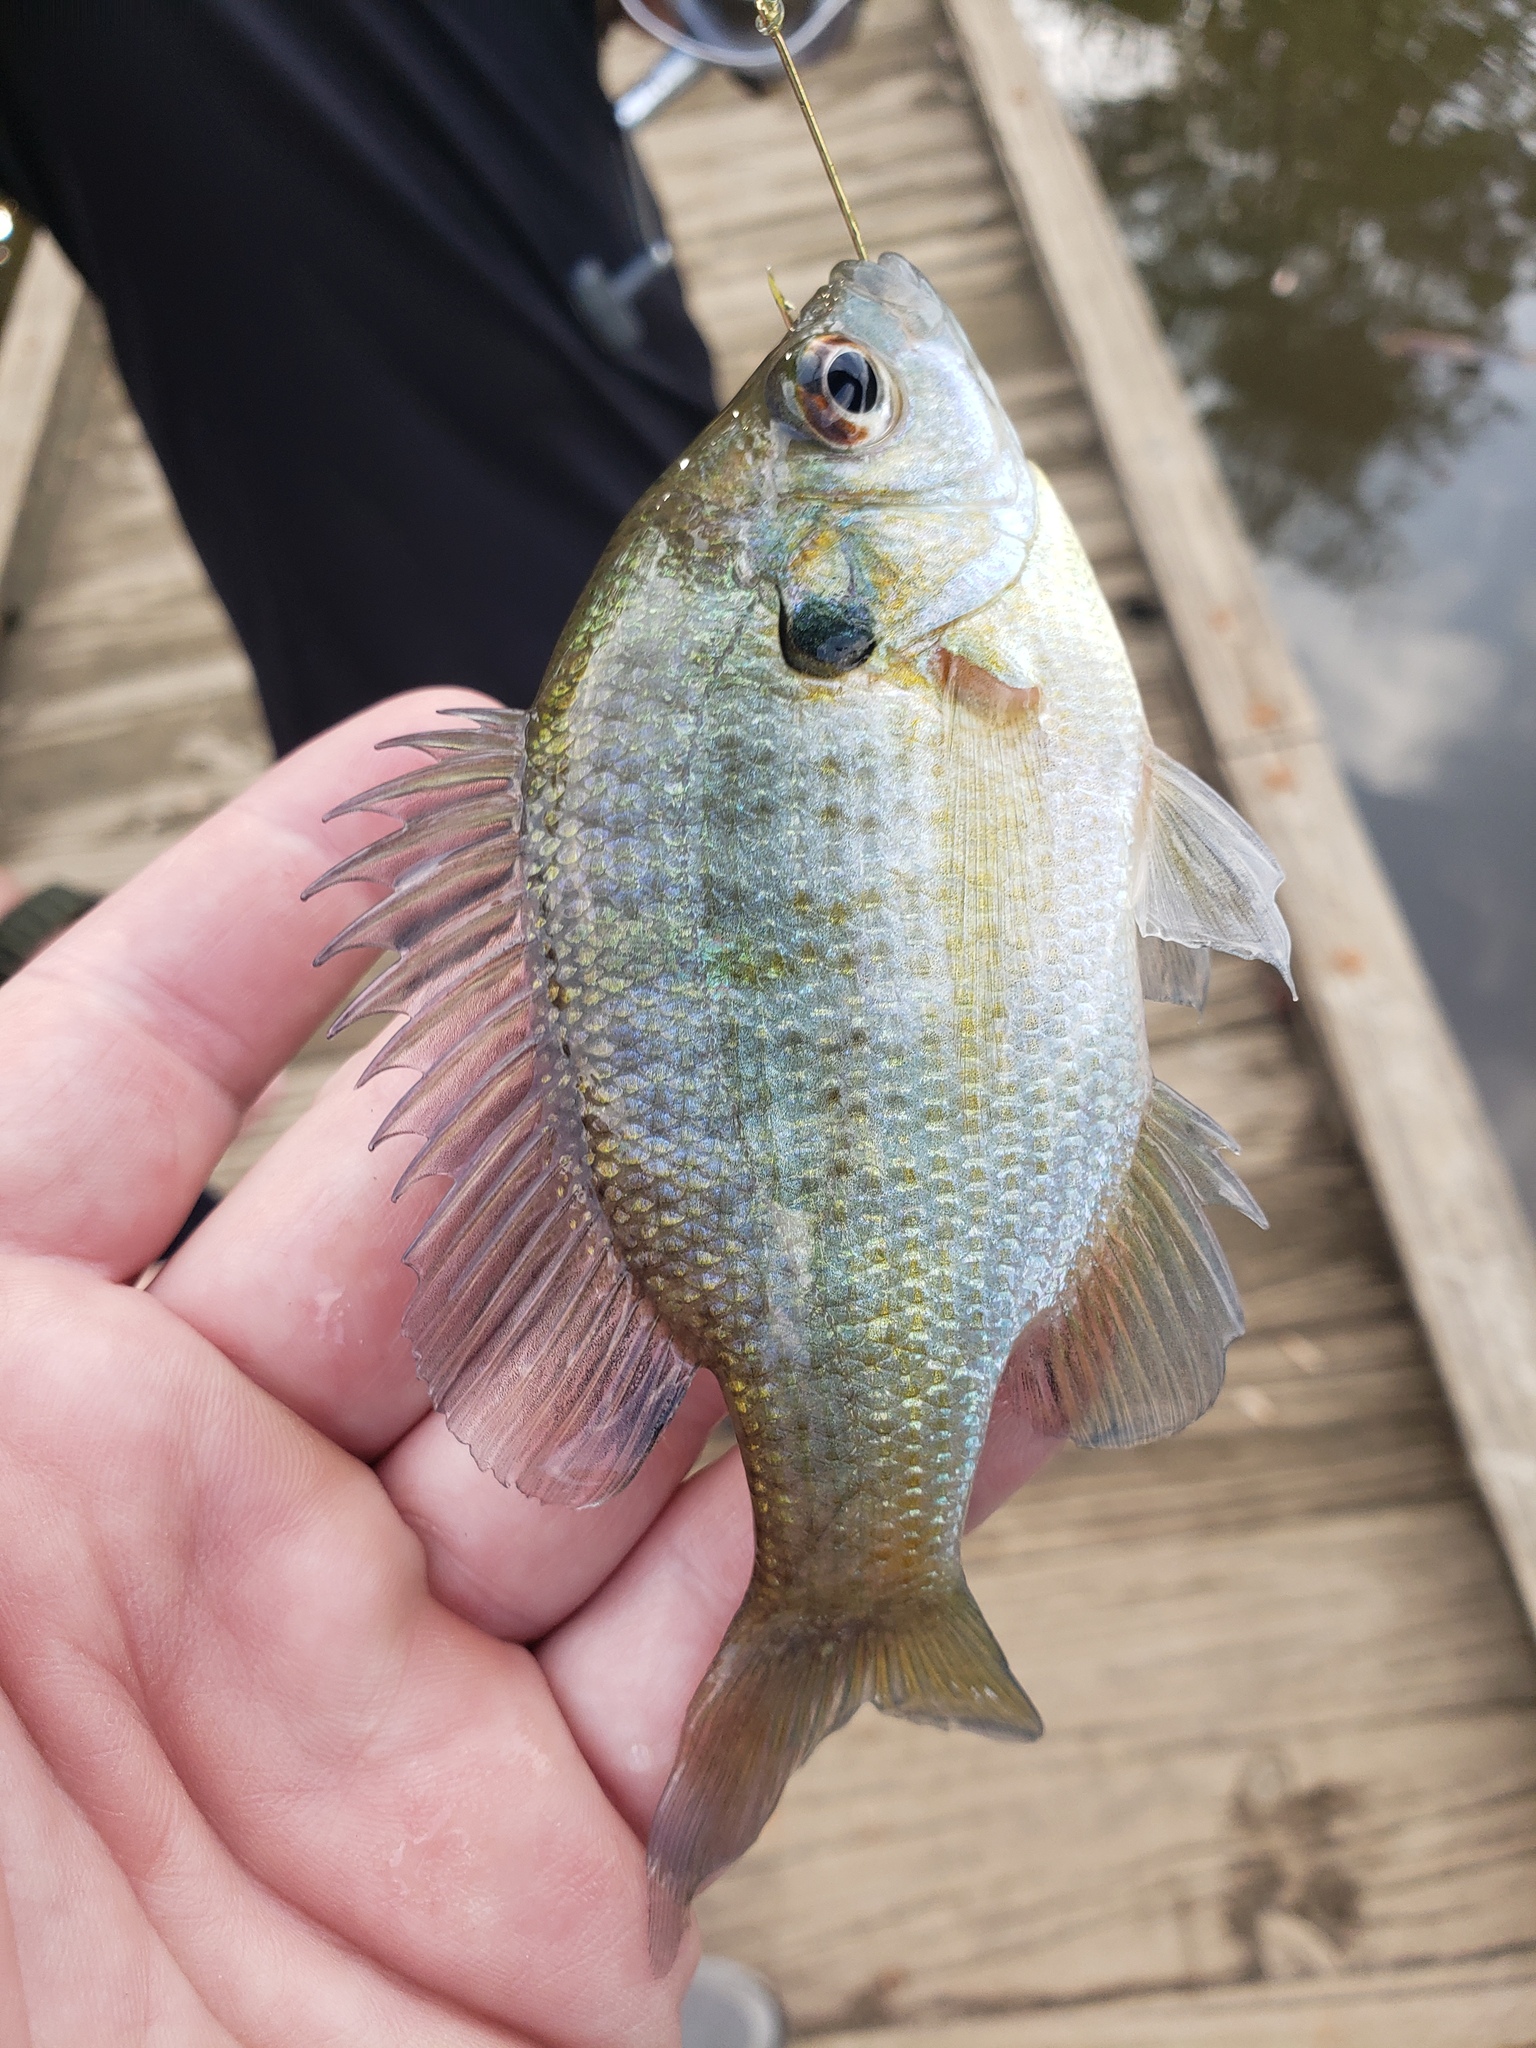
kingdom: Animalia
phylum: Chordata
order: Perciformes
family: Centrarchidae
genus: Lepomis
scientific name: Lepomis macrochirus
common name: Bluegill
